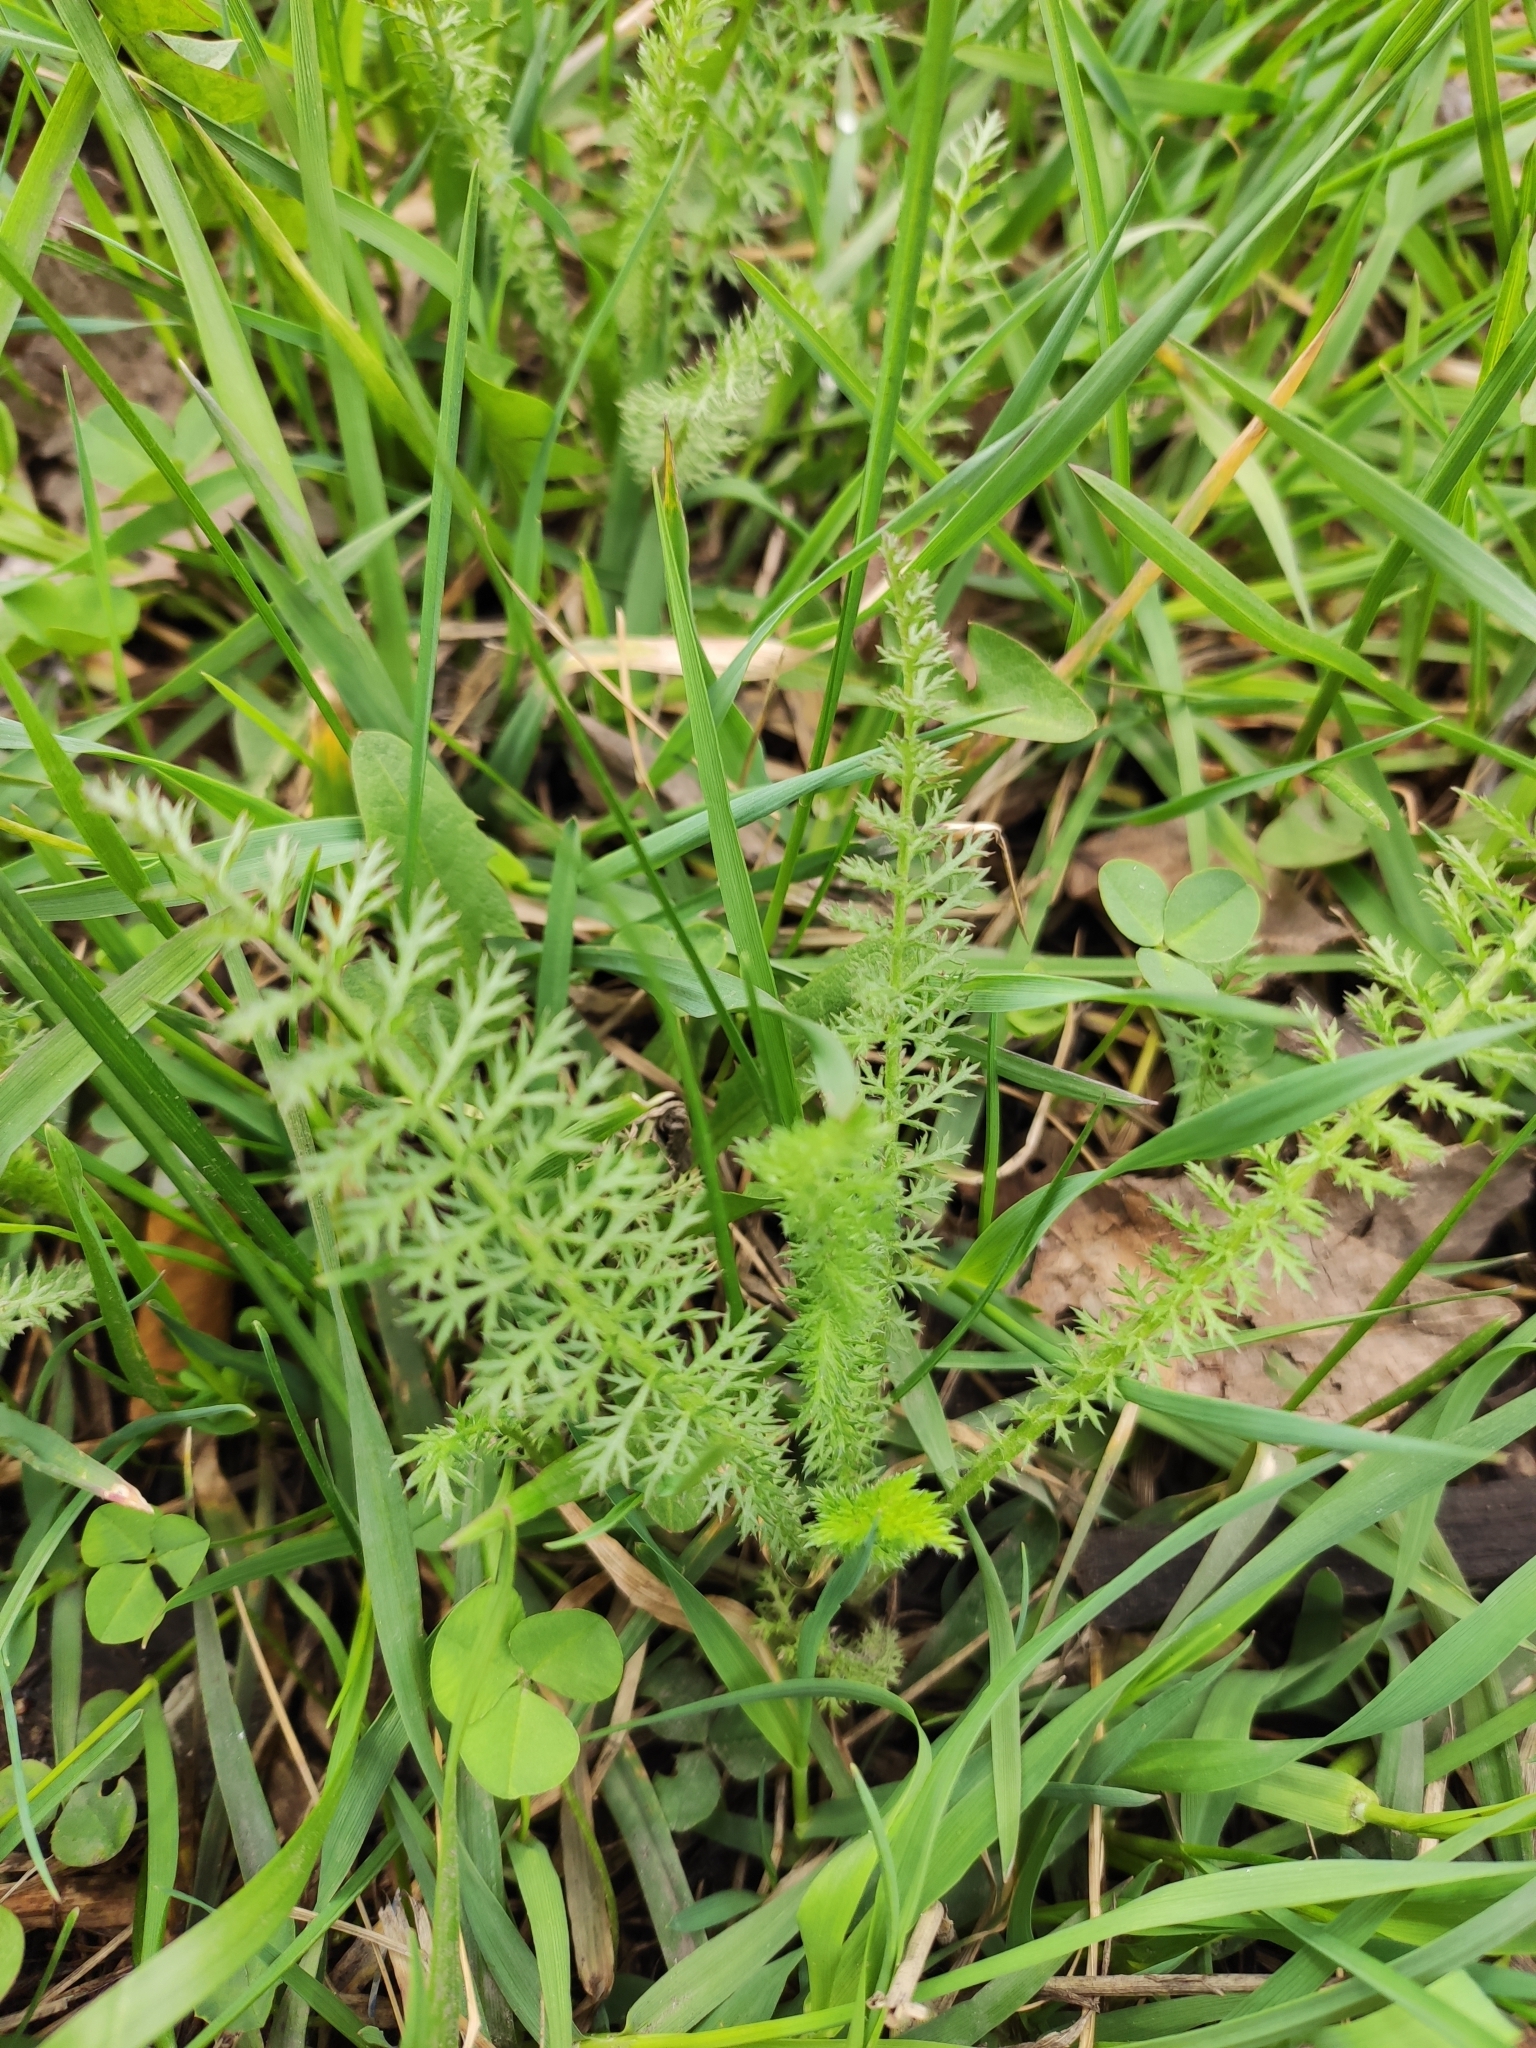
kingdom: Plantae
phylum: Tracheophyta
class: Magnoliopsida
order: Asterales
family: Asteraceae
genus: Achillea
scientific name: Achillea millefolium
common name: Yarrow
